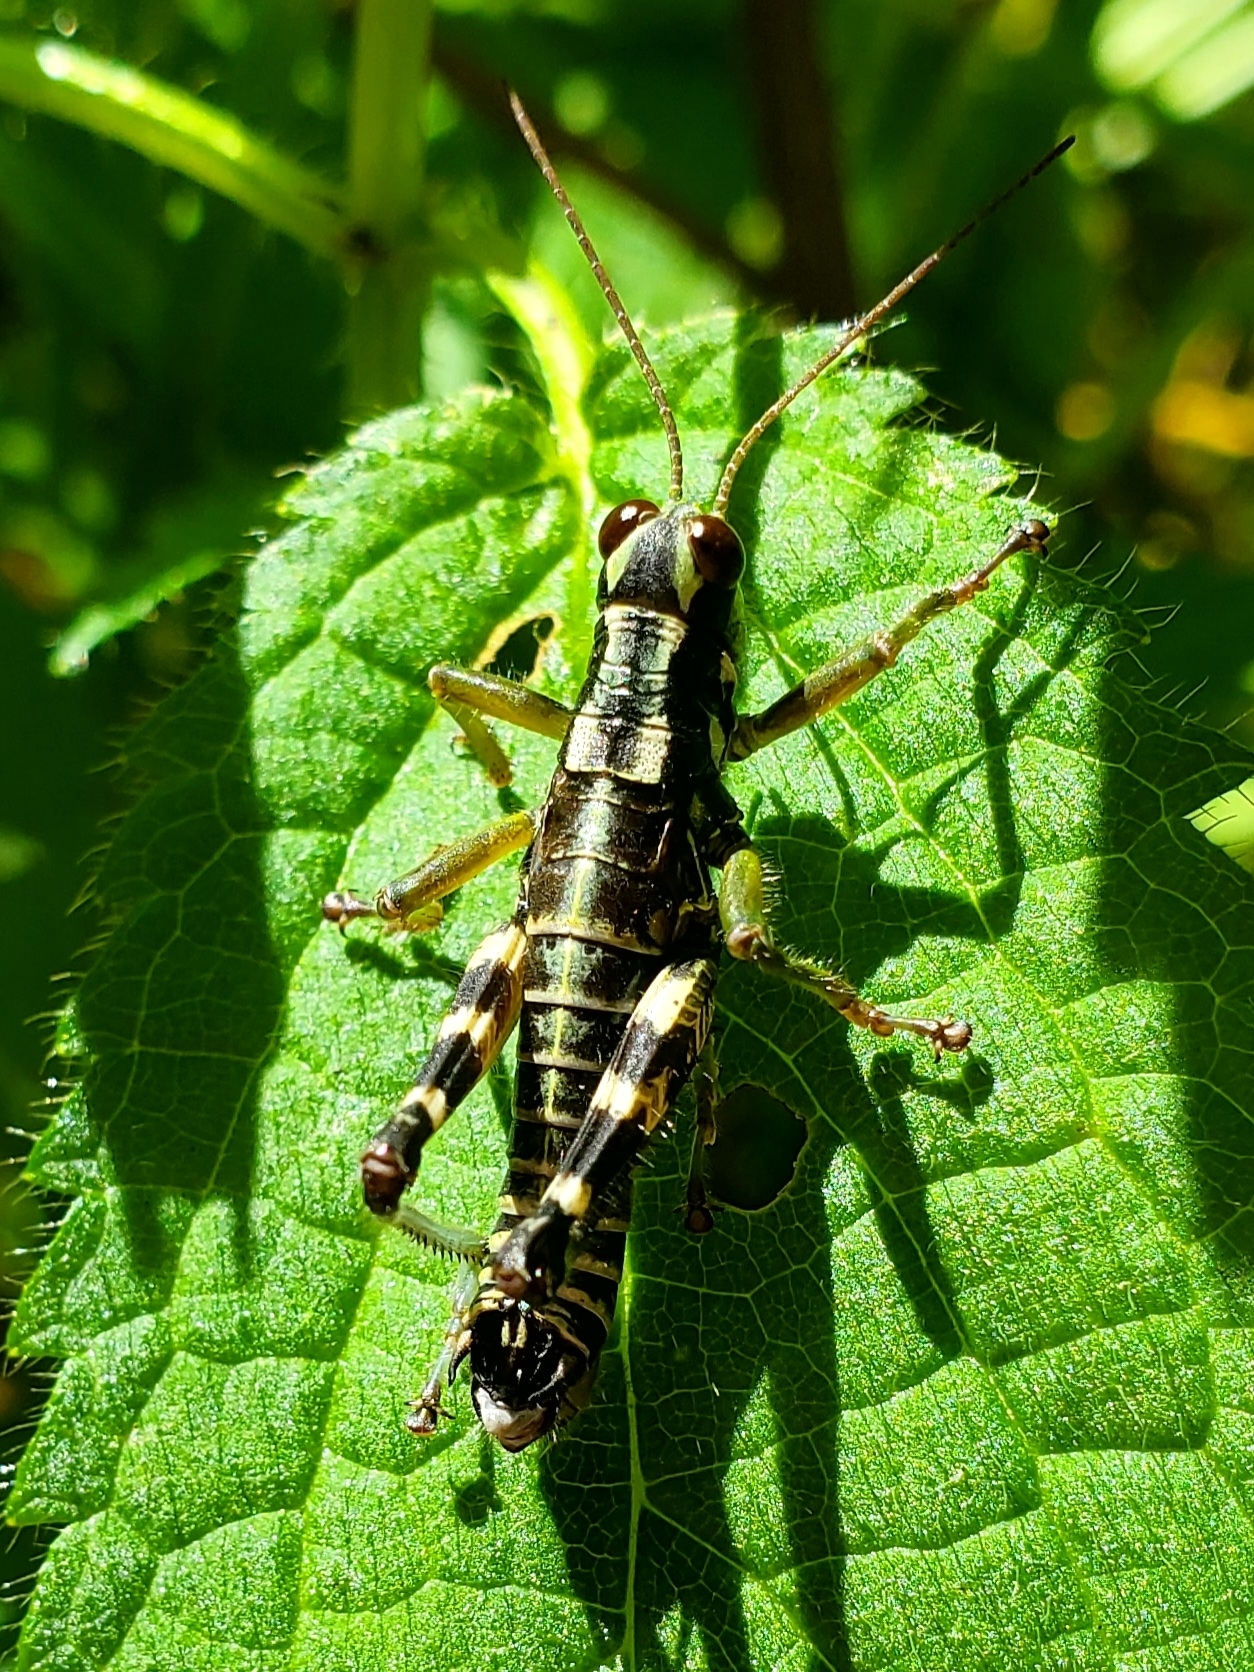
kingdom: Animalia
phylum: Arthropoda
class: Insecta
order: Orthoptera
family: Acrididae
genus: Booneacris
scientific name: Booneacris glacialis
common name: Wingless mountain grasshopper
